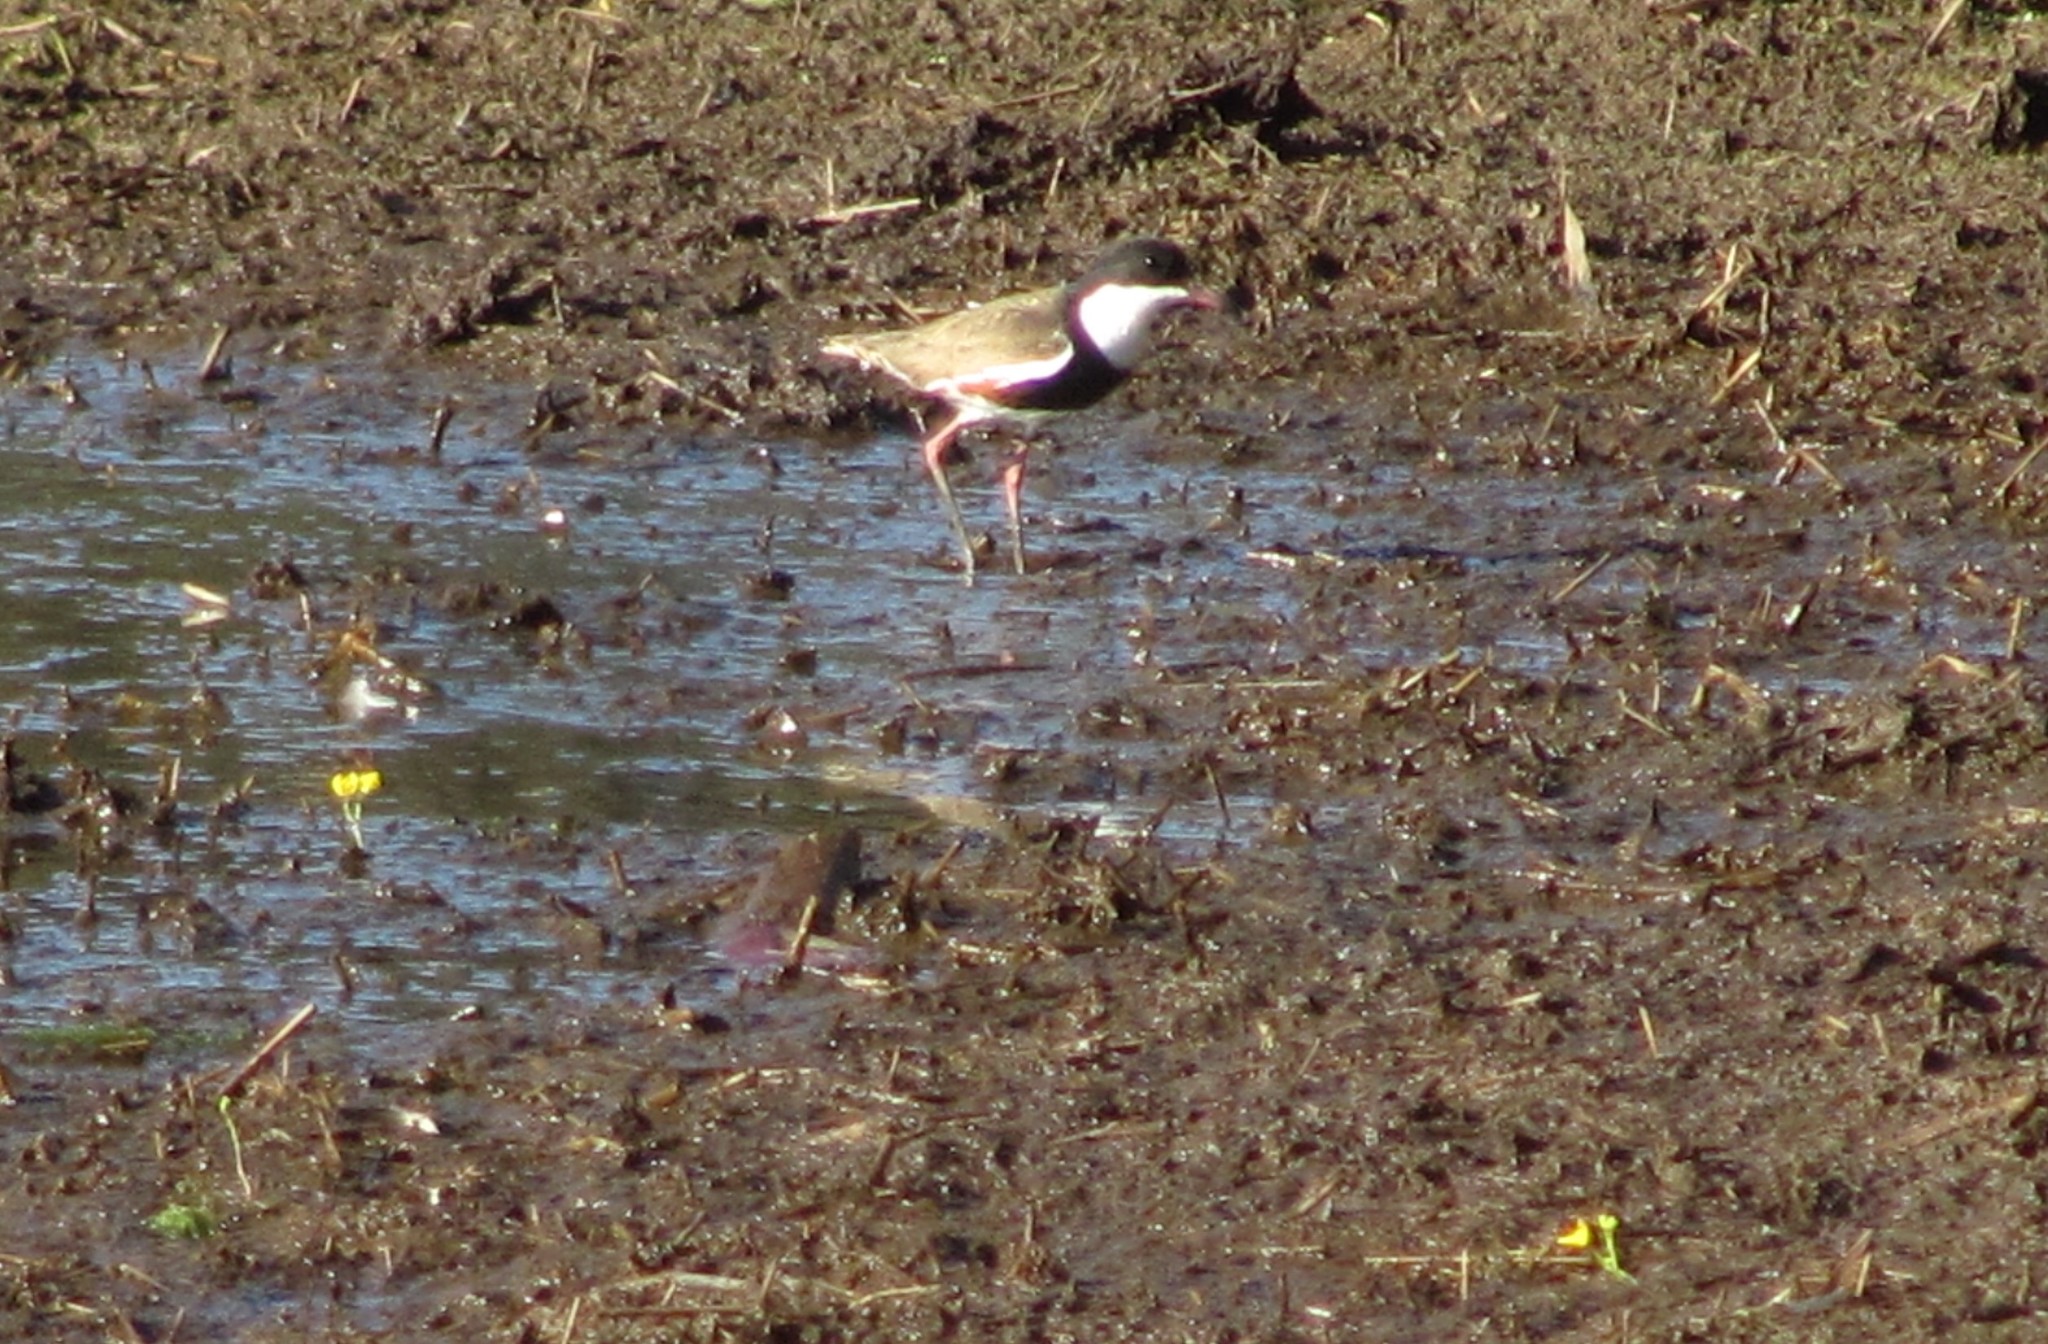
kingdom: Animalia
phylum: Chordata
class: Aves
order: Charadriiformes
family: Charadriidae
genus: Erythrogonys
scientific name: Erythrogonys cinctus
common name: Red-kneed dotterel
